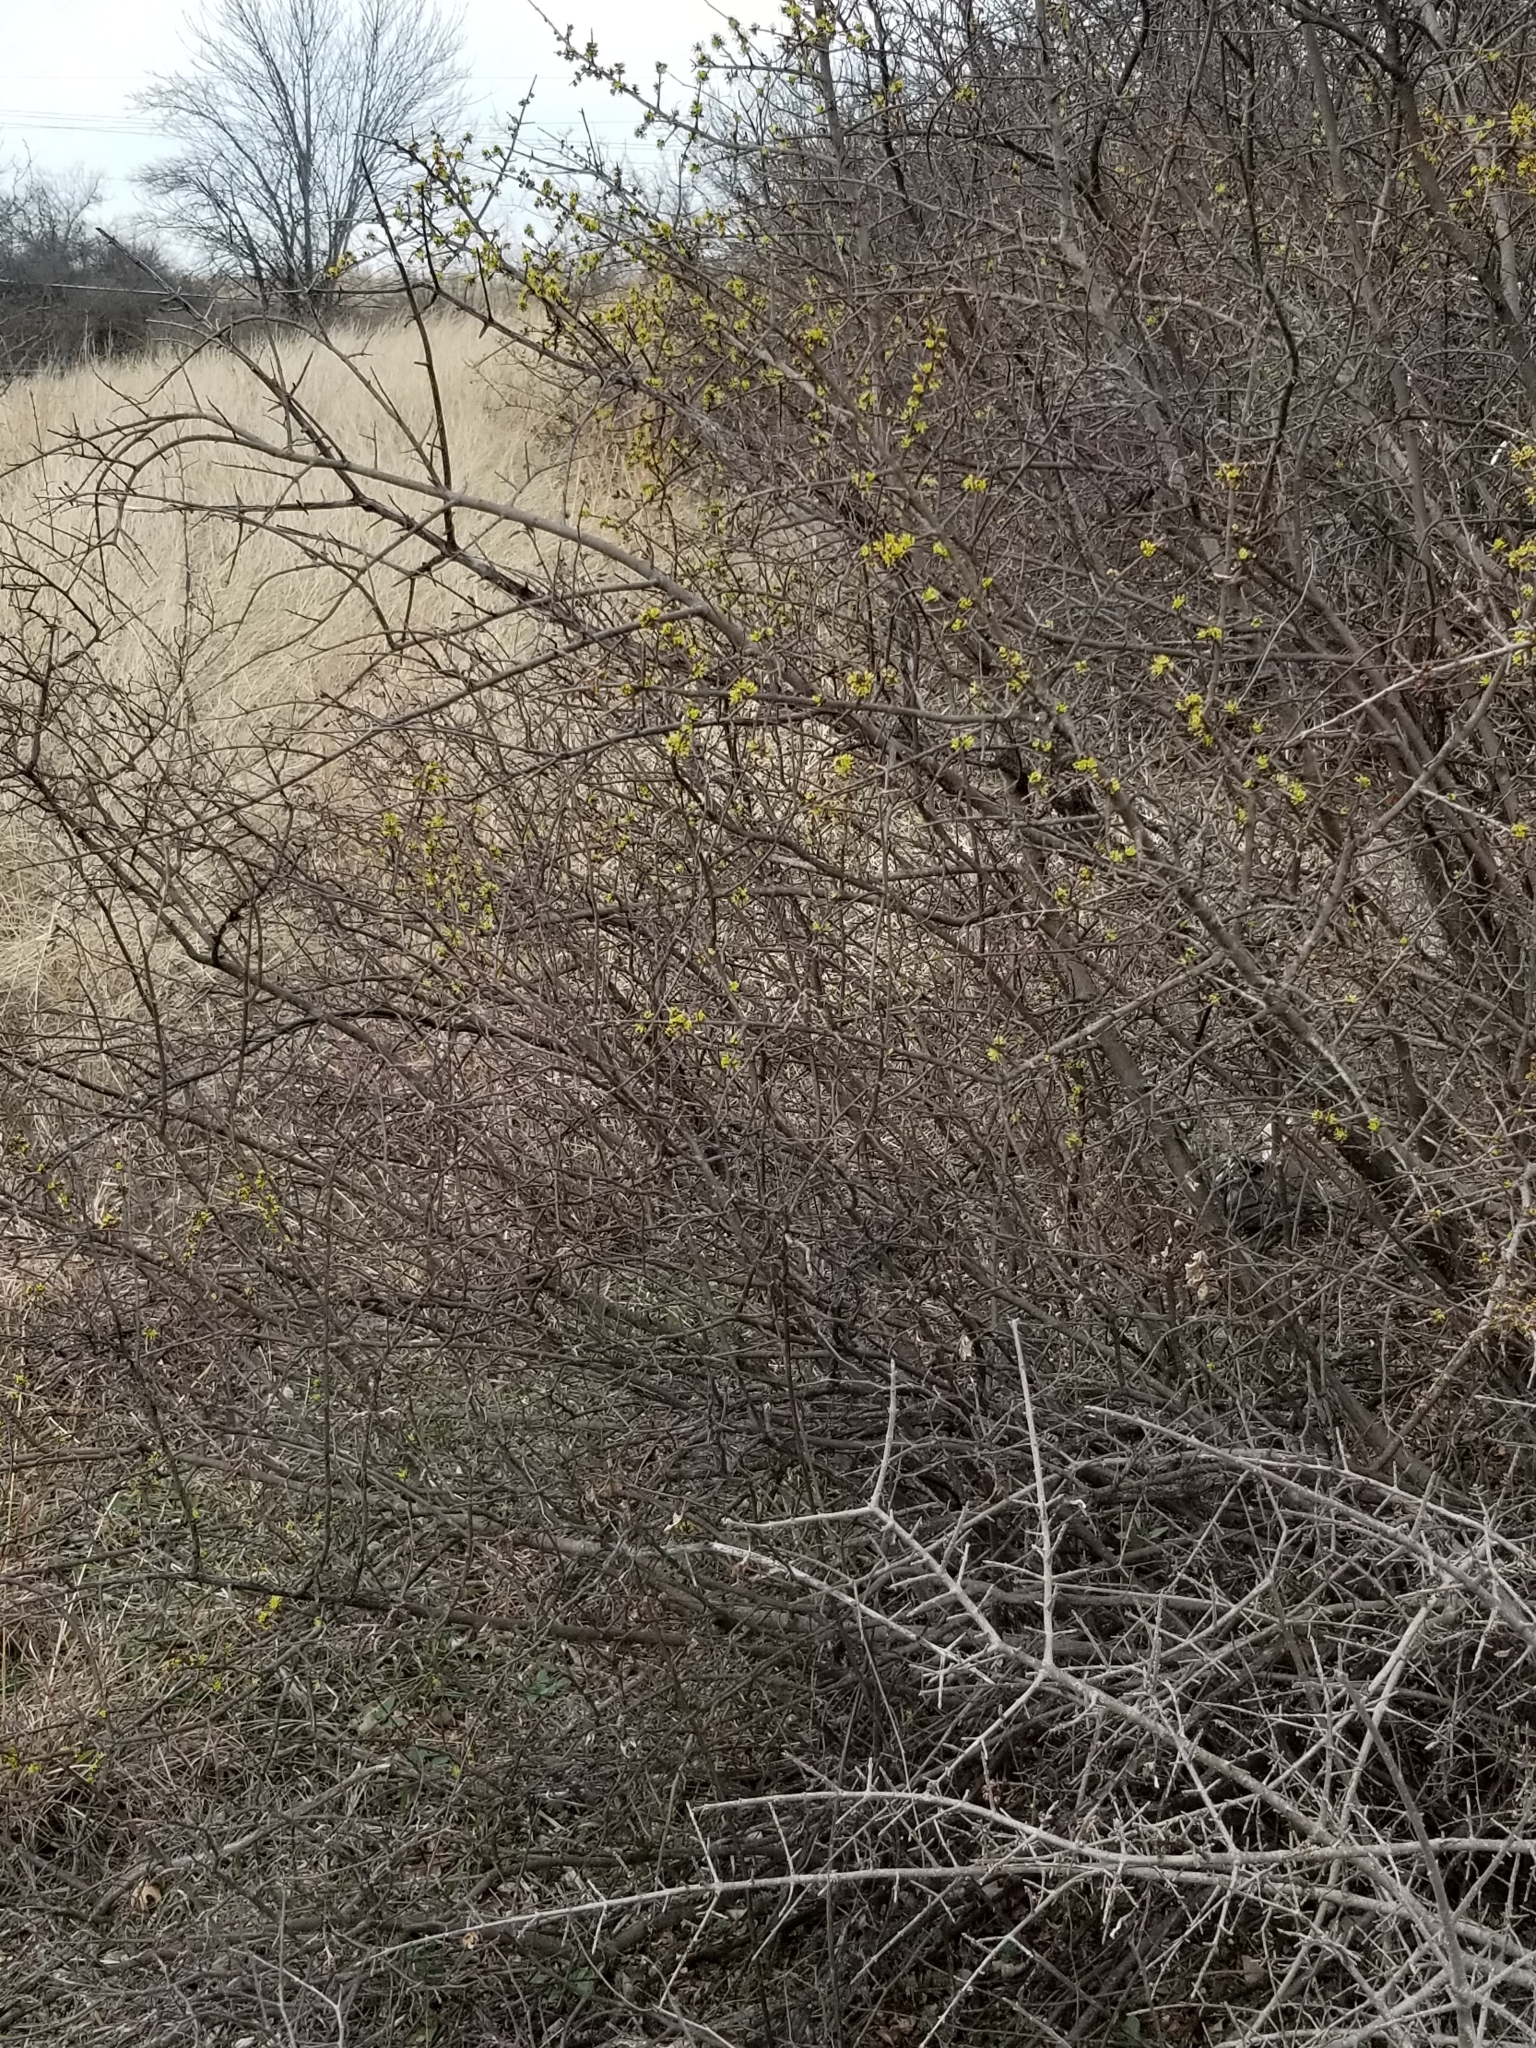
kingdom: Plantae
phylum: Tracheophyta
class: Magnoliopsida
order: Lamiales
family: Oleaceae
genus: Forestiera
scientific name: Forestiera pubescens
